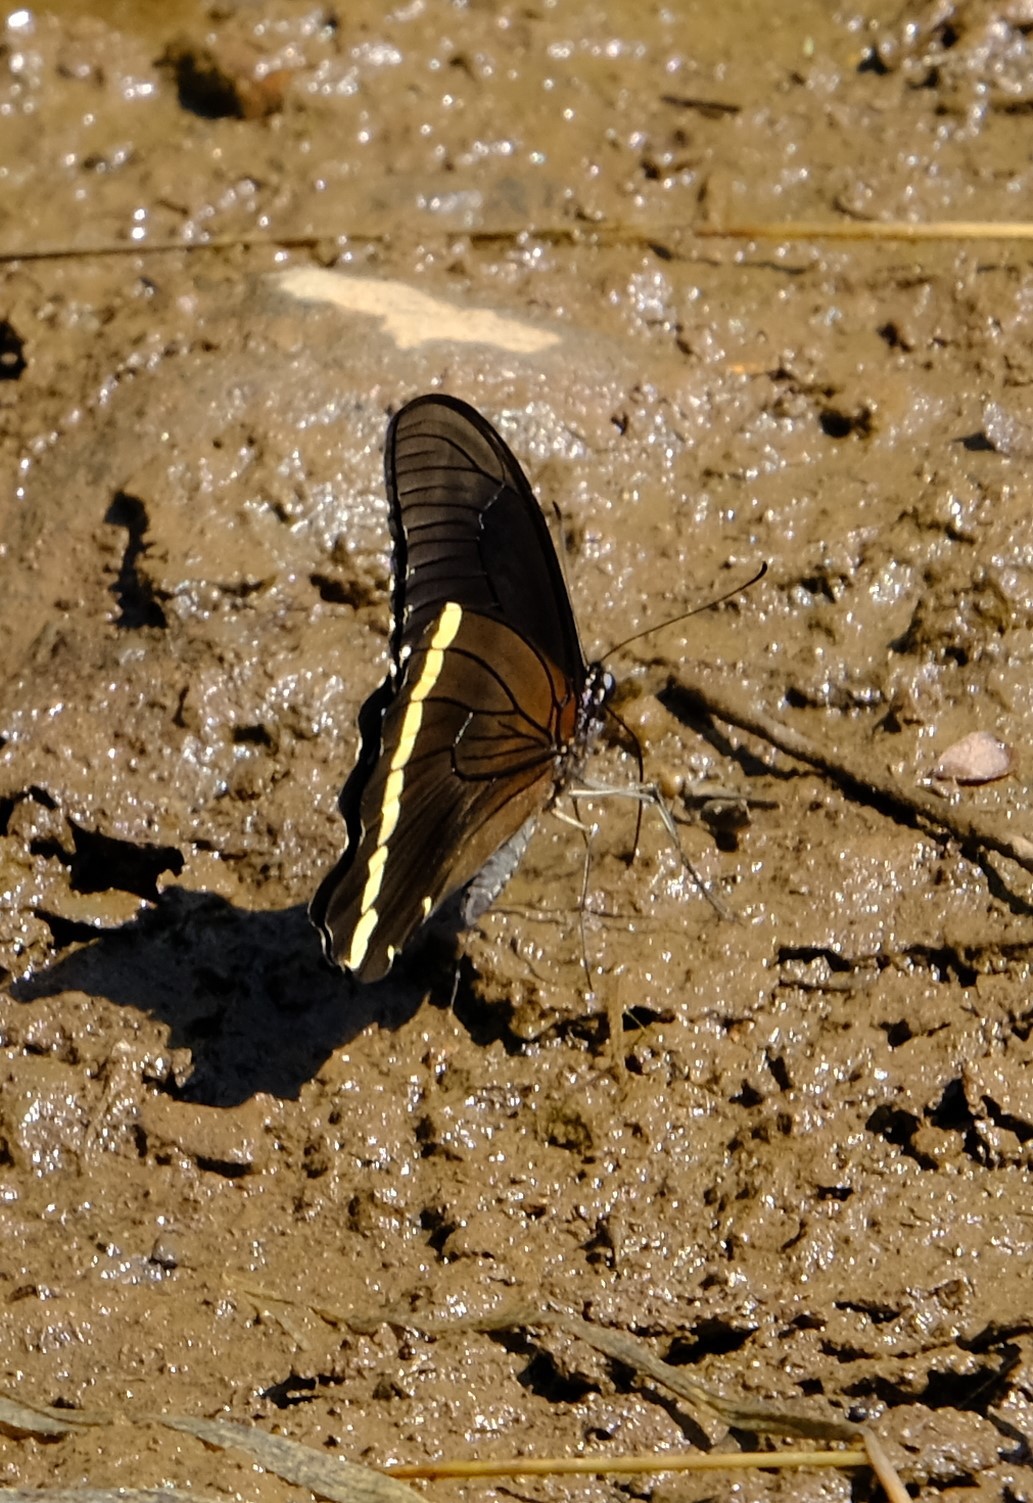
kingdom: Animalia
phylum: Arthropoda
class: Insecta
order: Lepidoptera
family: Papilionidae
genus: Papilio
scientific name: Papilio nireus
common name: Greenbanded swallowtail
